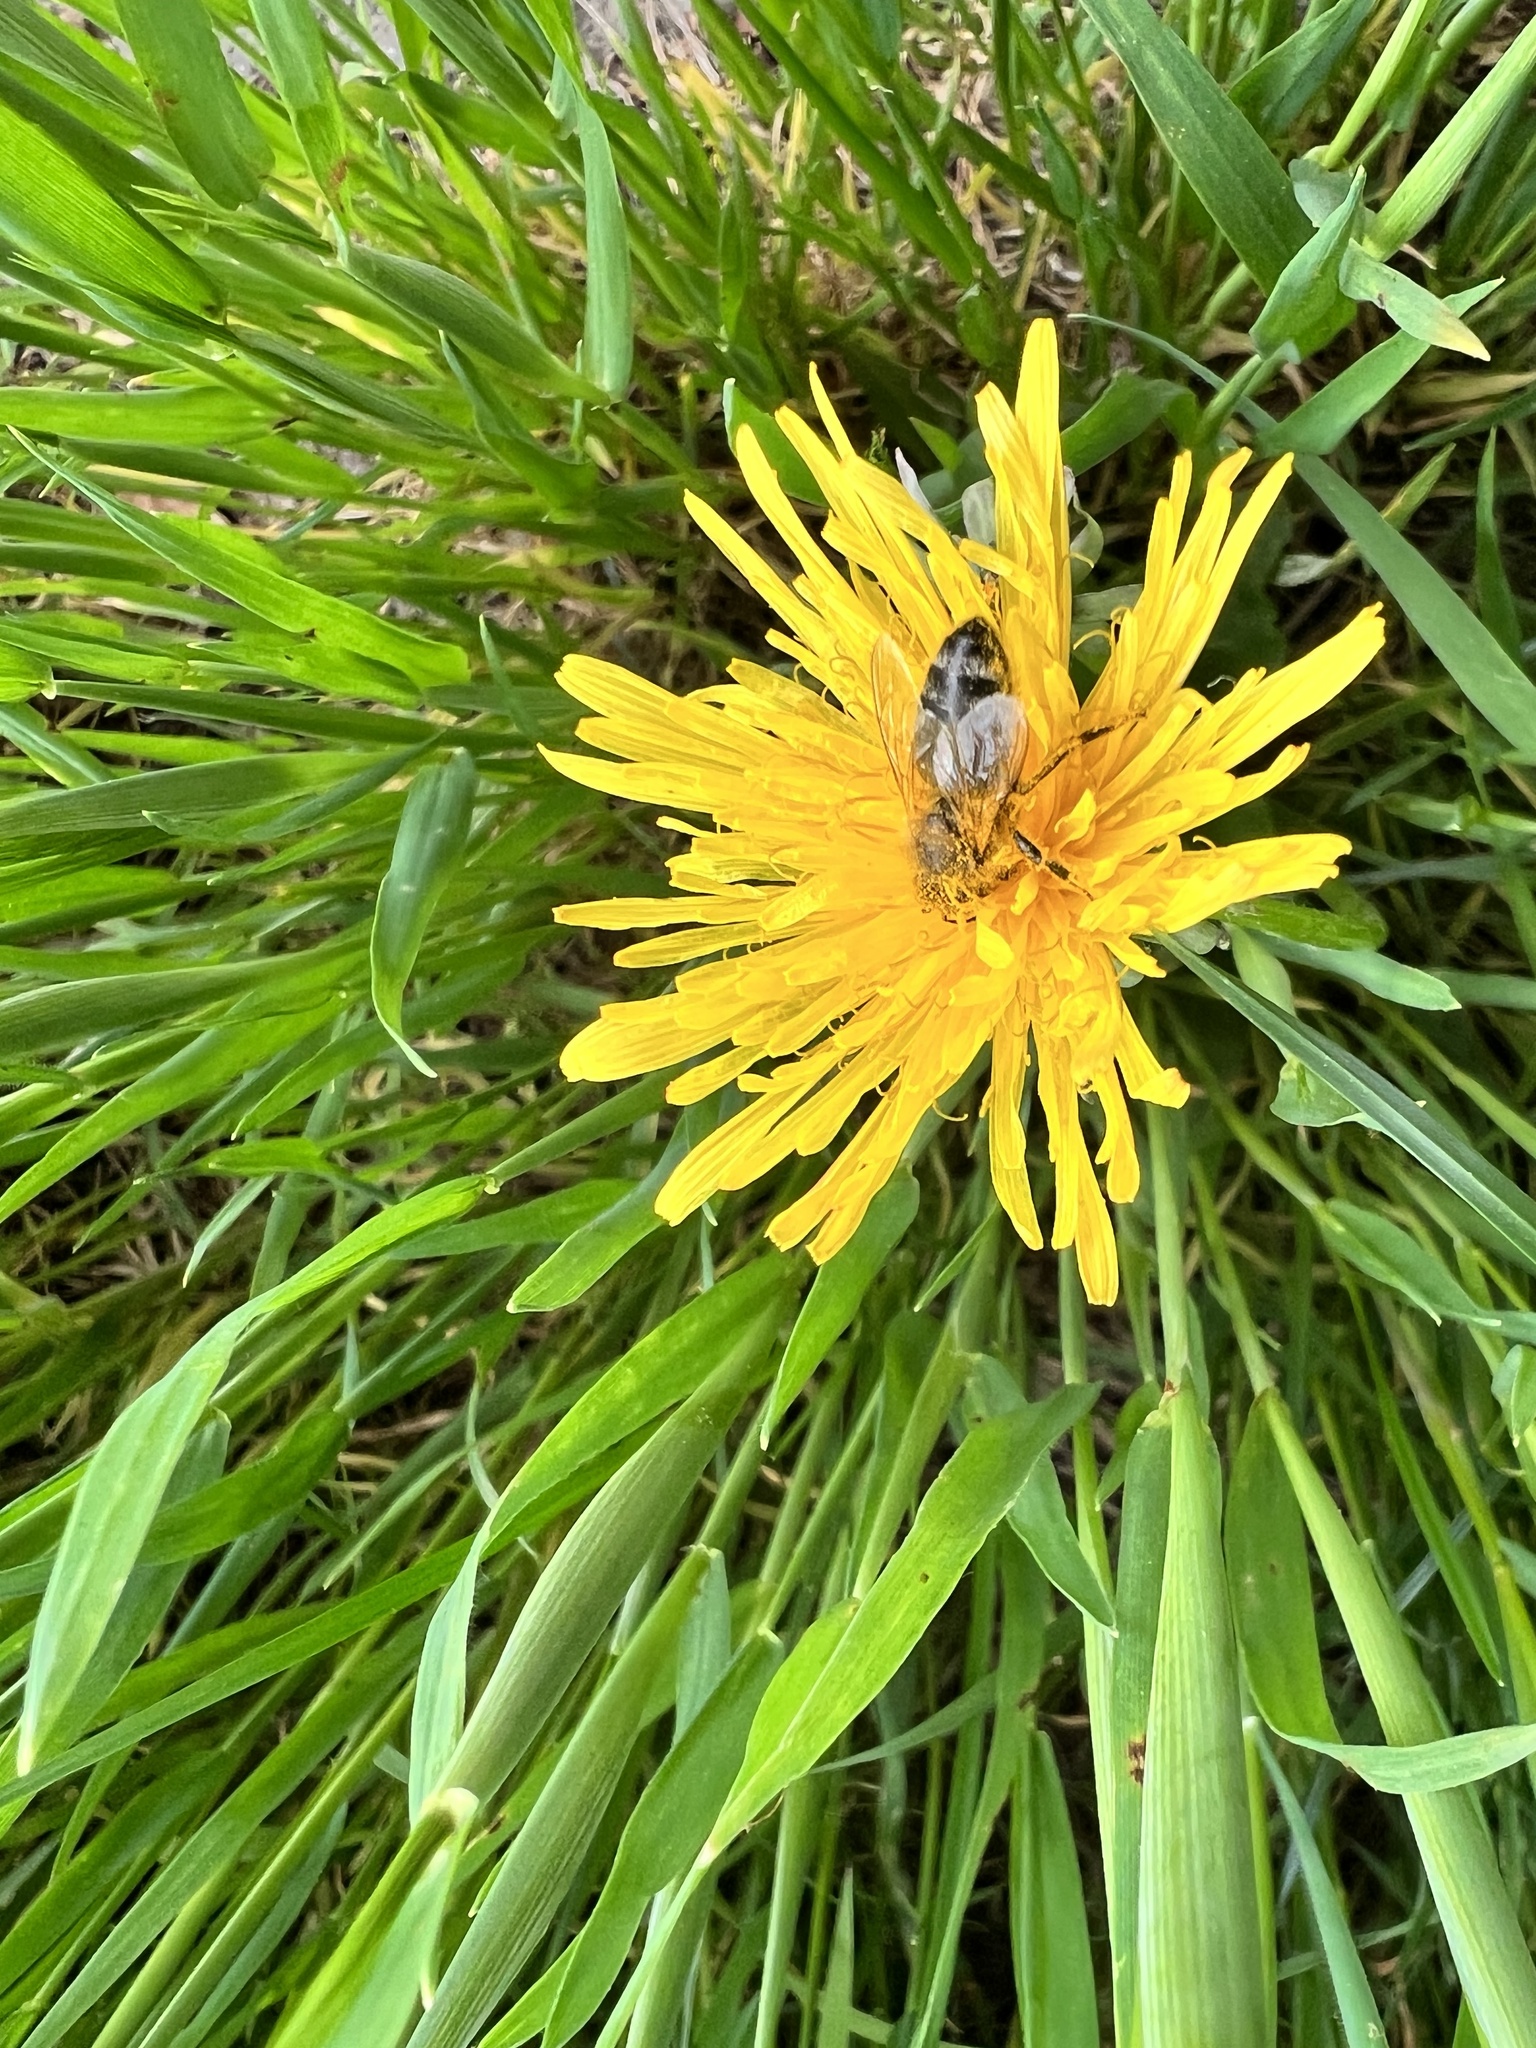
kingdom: Animalia
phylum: Arthropoda
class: Insecta
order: Hymenoptera
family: Apidae
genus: Apis
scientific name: Apis mellifera
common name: Honey bee
